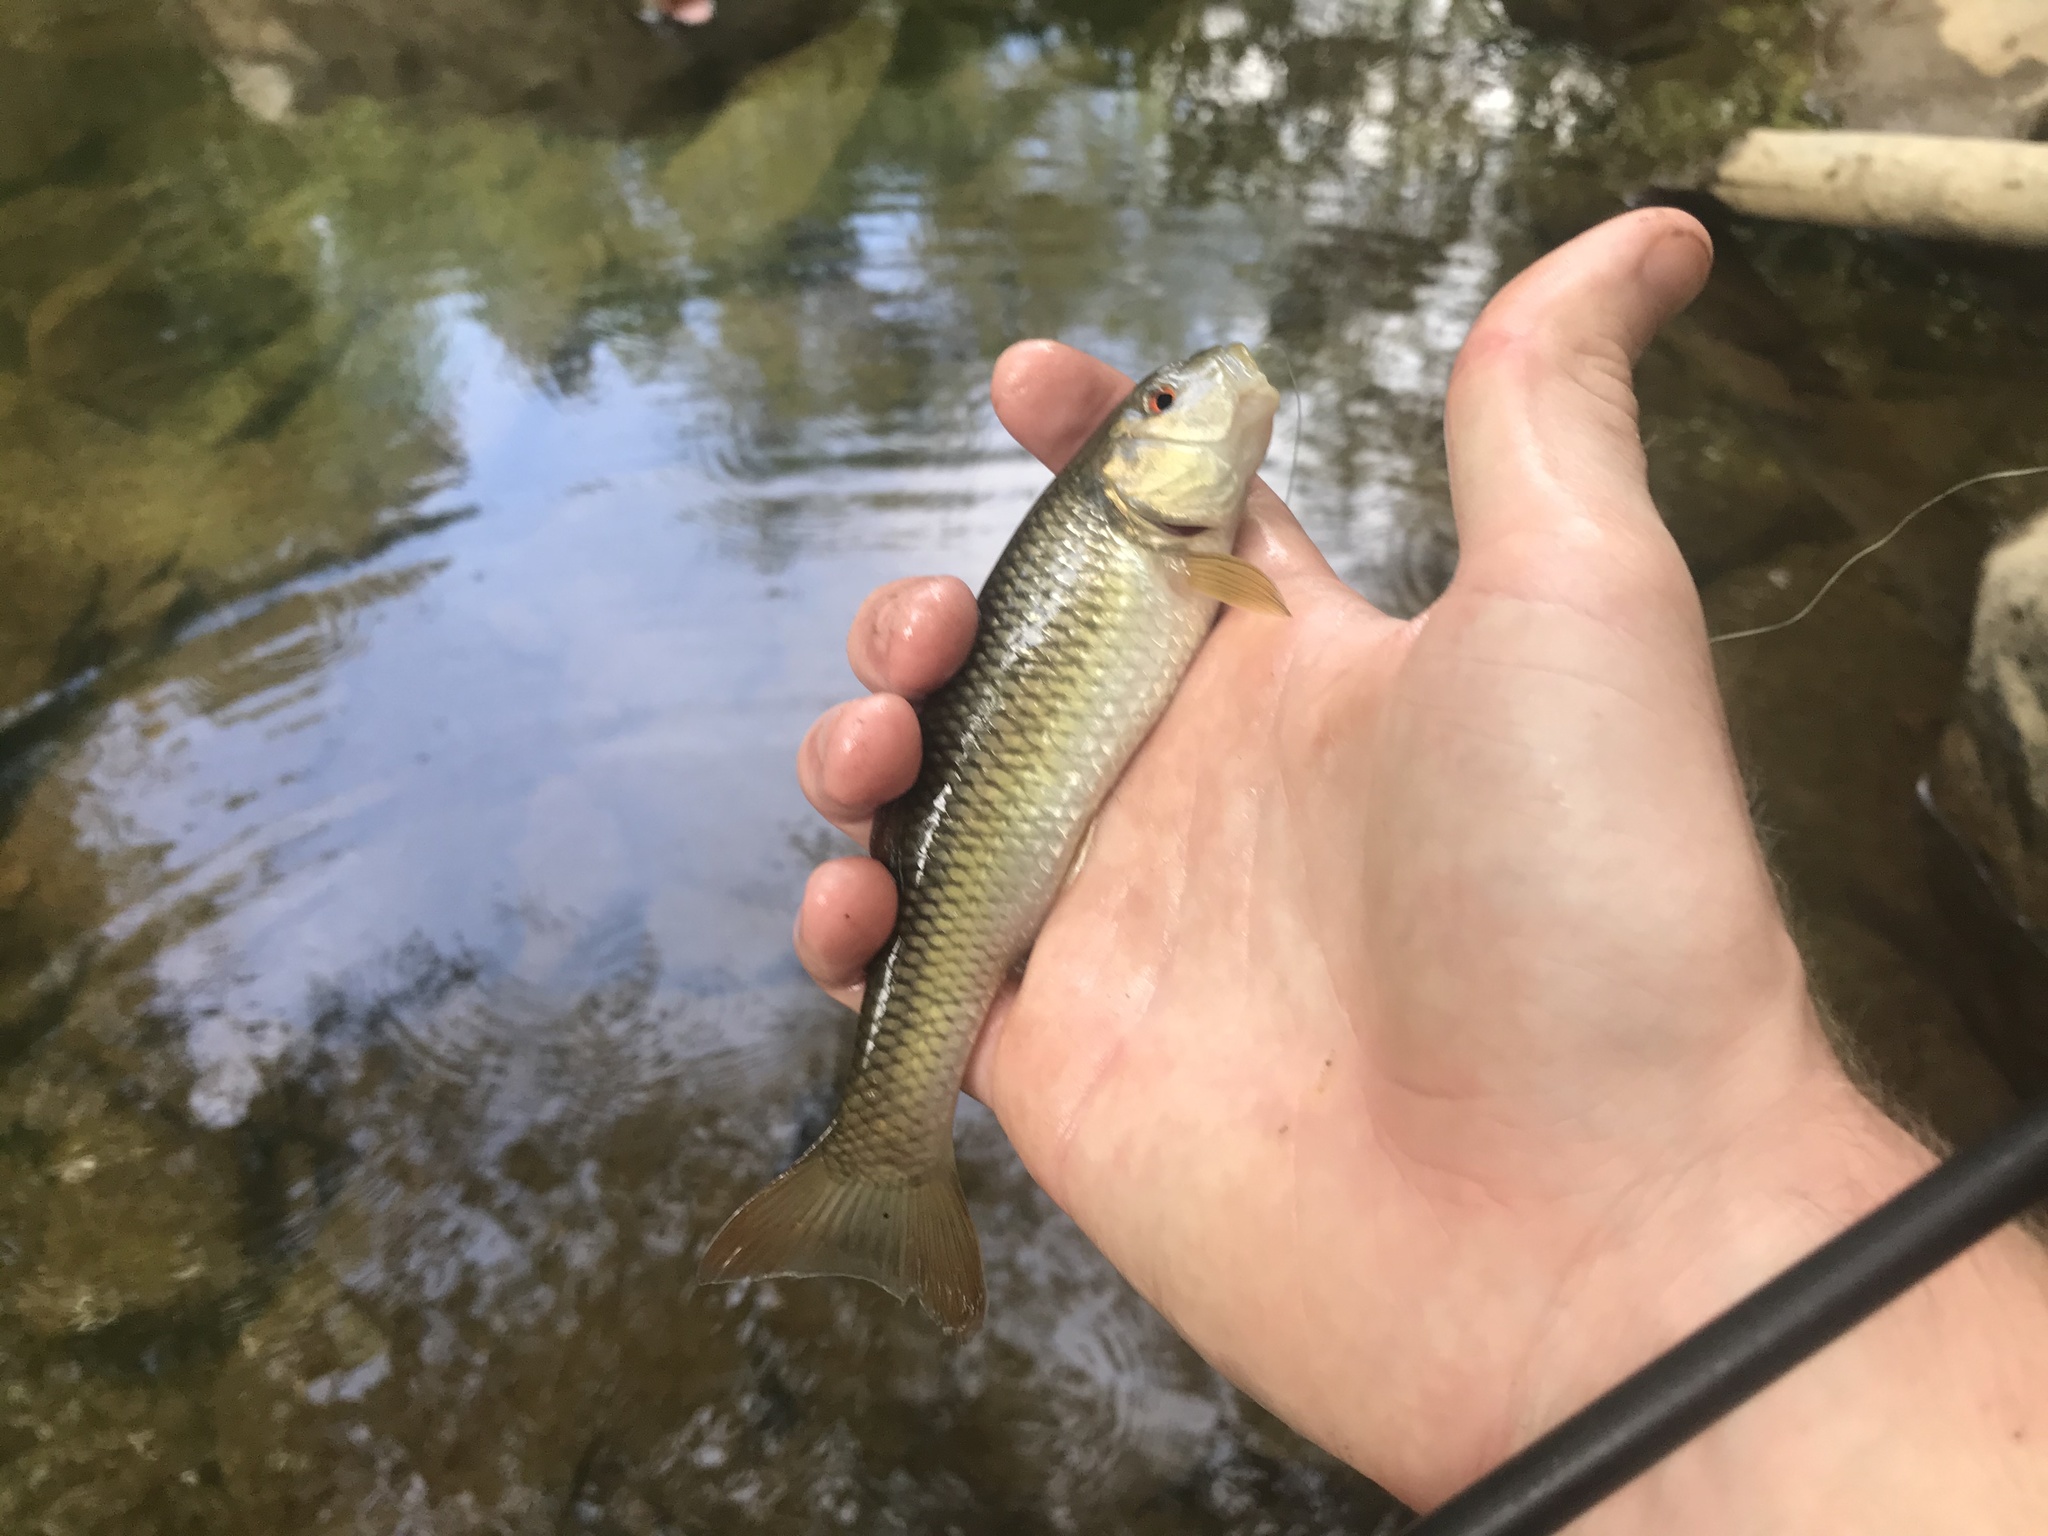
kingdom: Animalia
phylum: Chordata
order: Cypriniformes
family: Cyprinidae
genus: Nocomis
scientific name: Nocomis raneyi
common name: Bull chub
